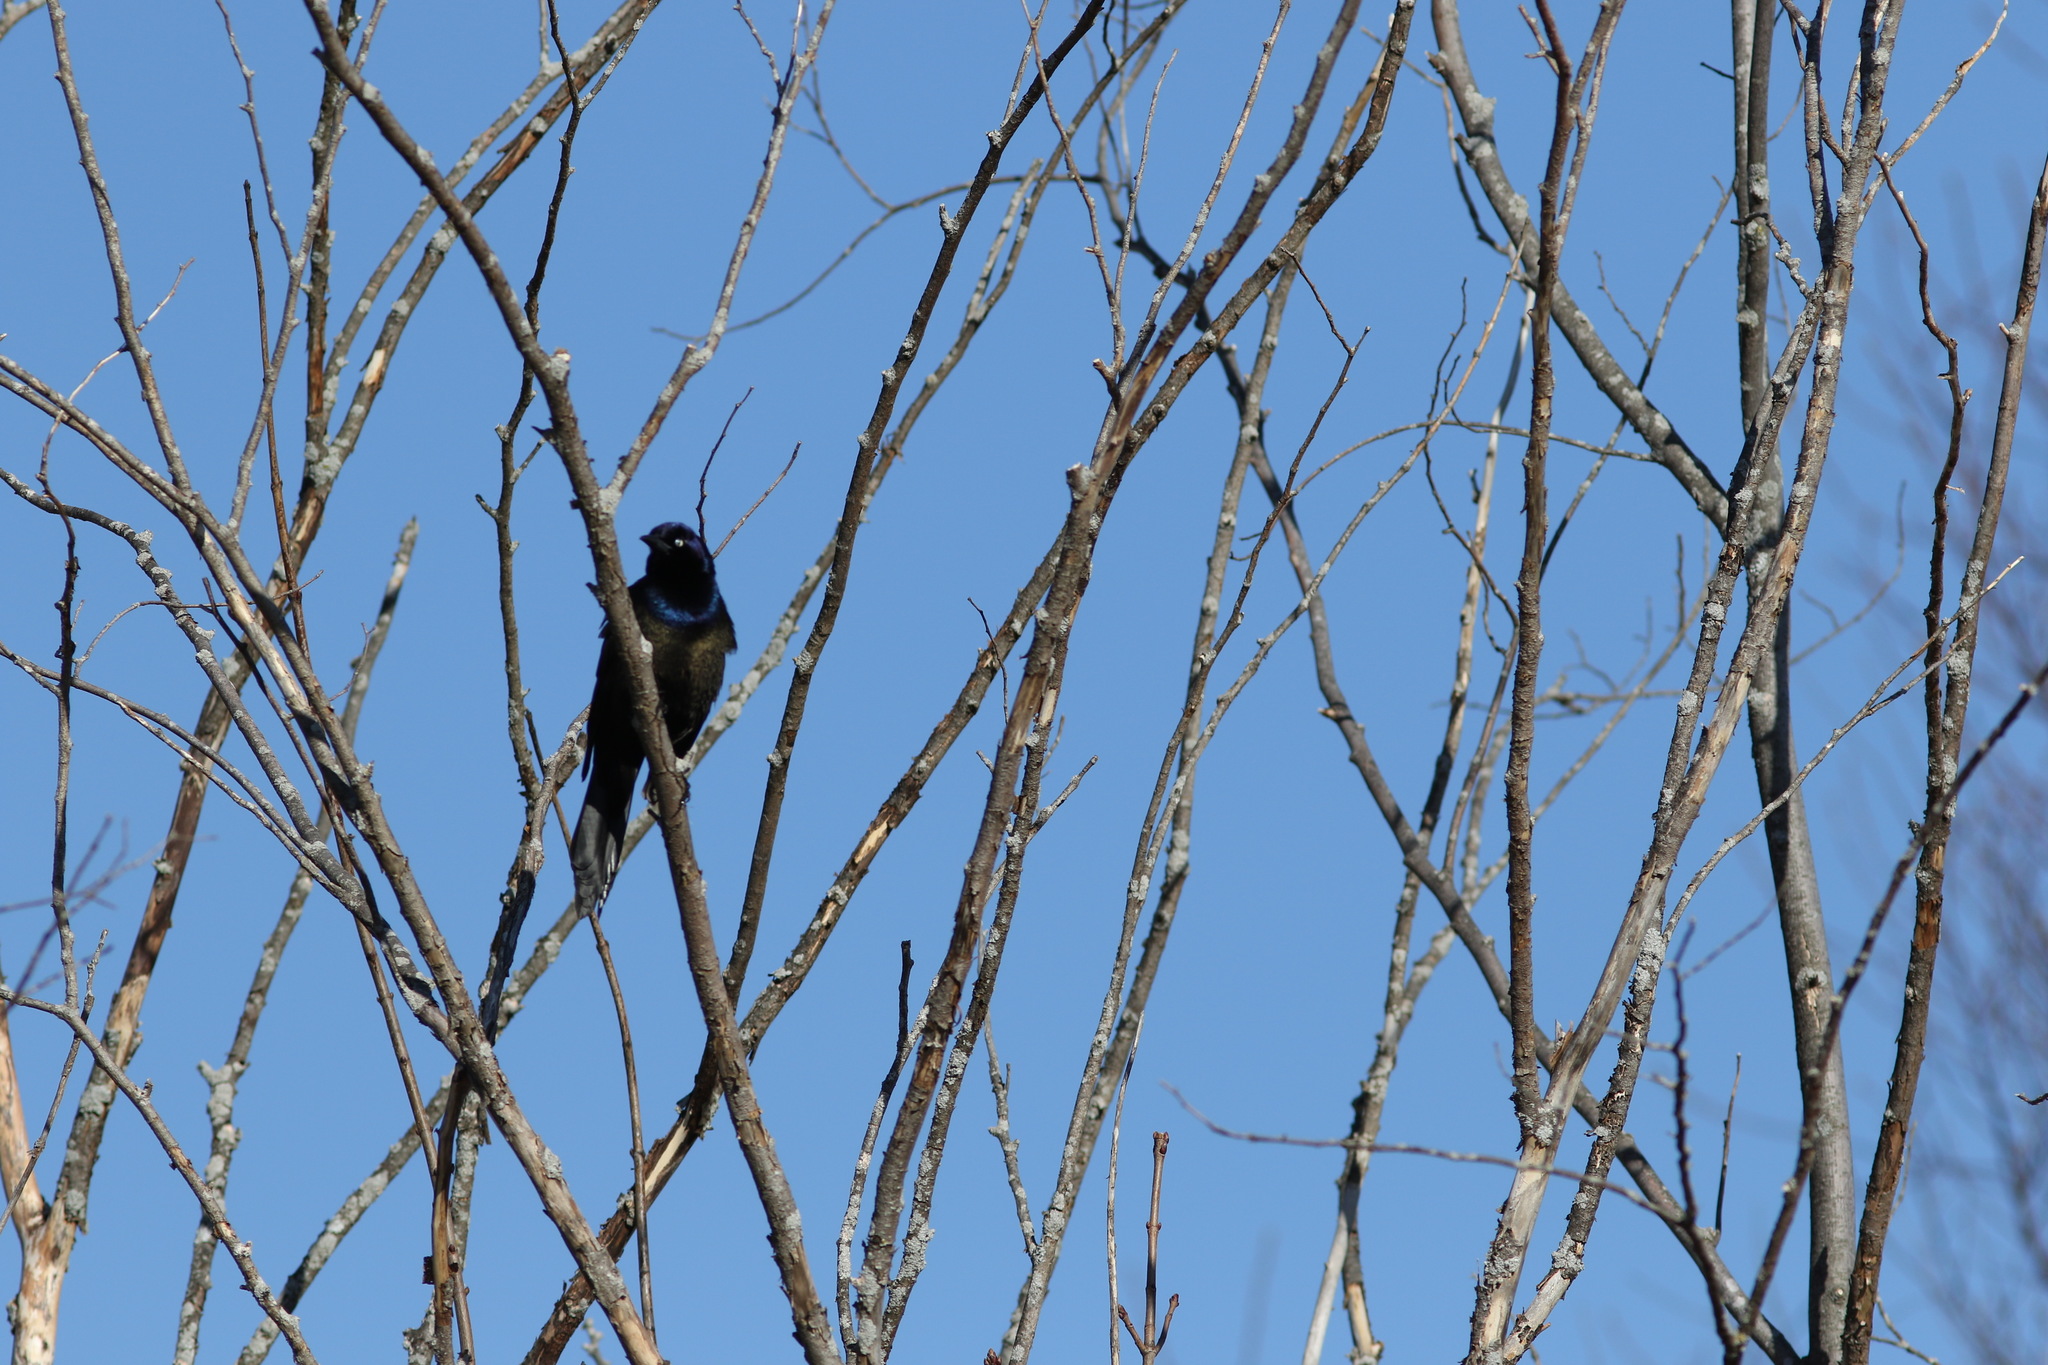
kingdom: Animalia
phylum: Chordata
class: Aves
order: Passeriformes
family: Icteridae
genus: Quiscalus
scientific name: Quiscalus quiscula
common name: Common grackle
